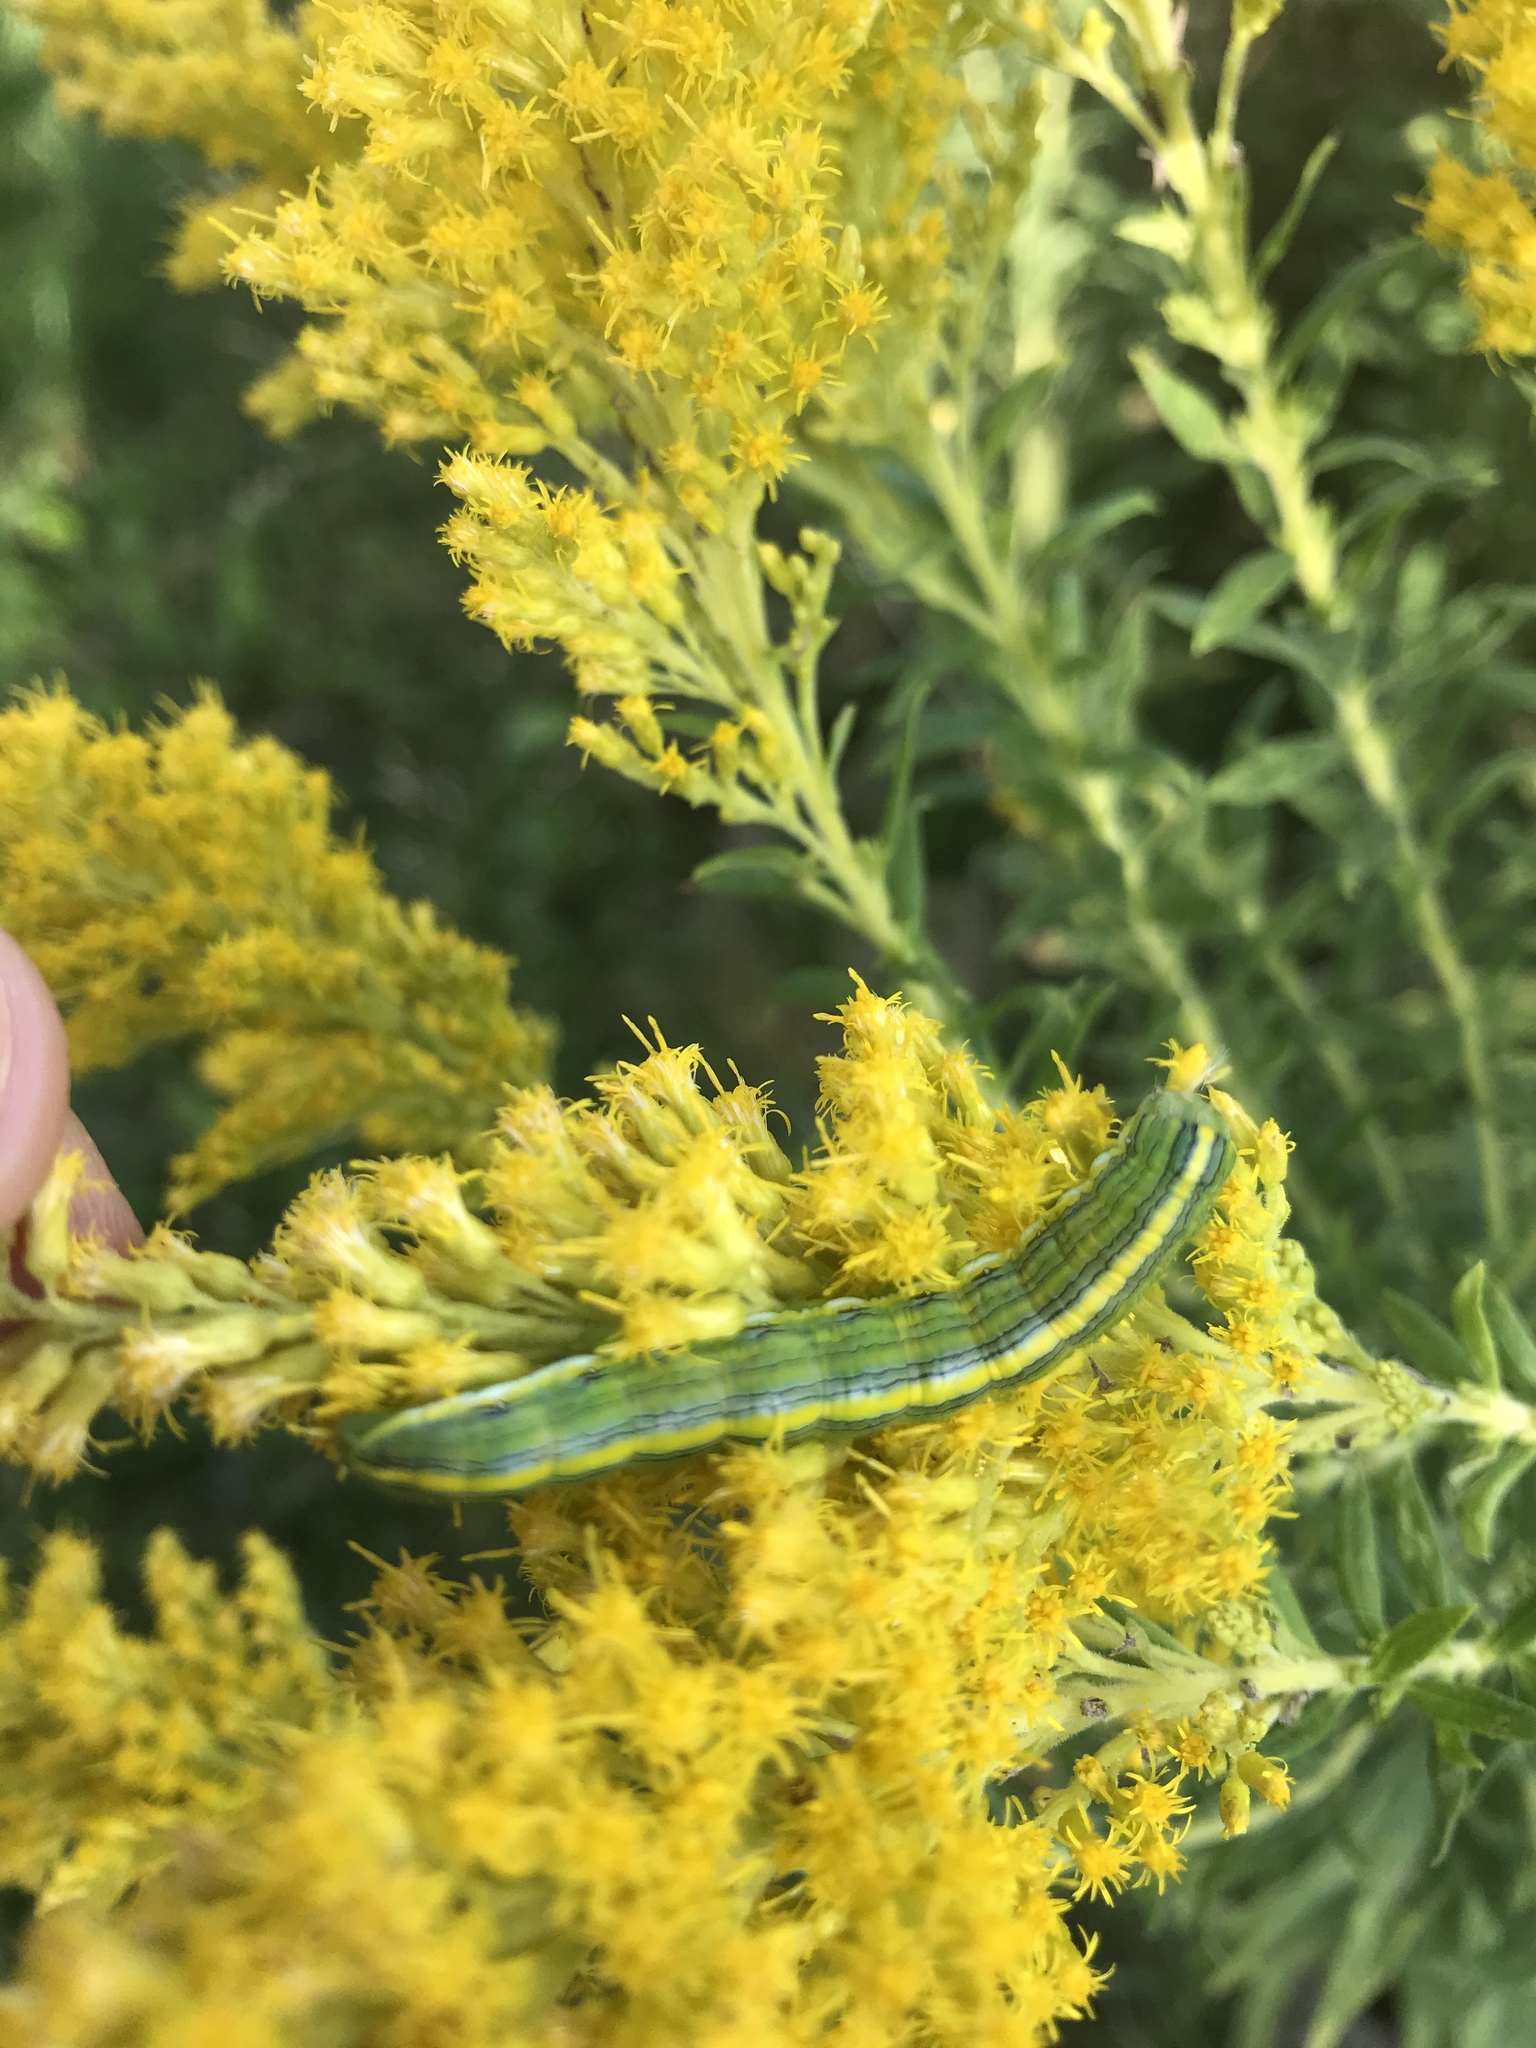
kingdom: Animalia
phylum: Arthropoda
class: Insecta
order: Lepidoptera
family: Noctuidae
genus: Cucullia
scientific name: Cucullia asteroides
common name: Asteroid moth
